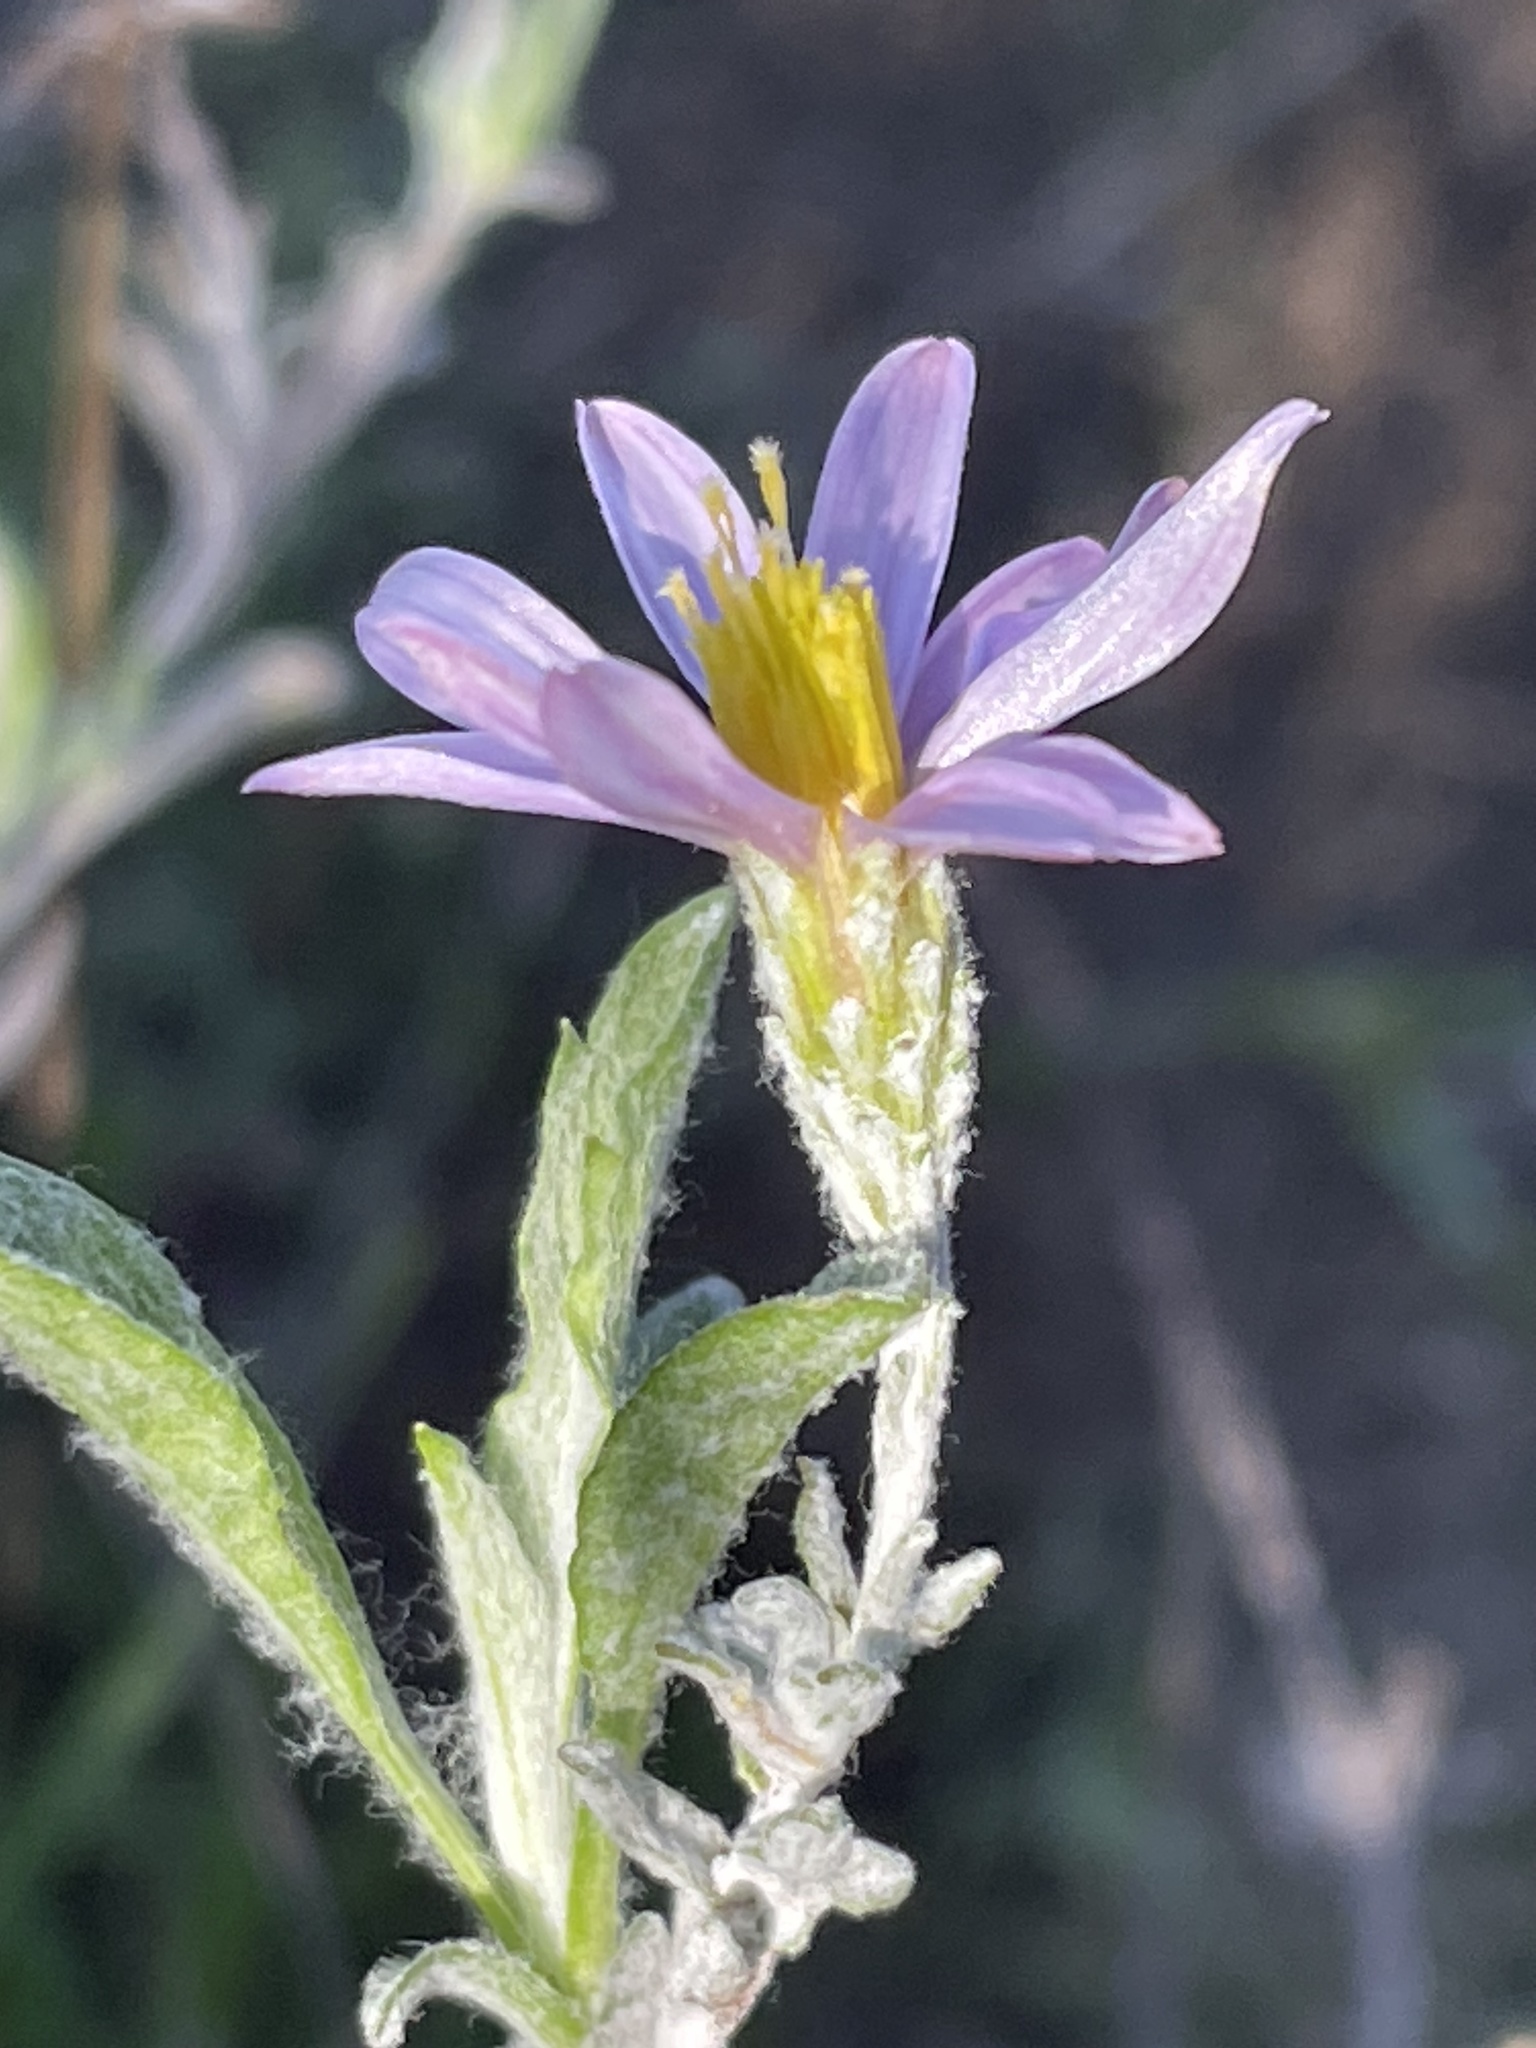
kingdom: Plantae
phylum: Tracheophyta
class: Magnoliopsida
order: Asterales
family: Asteraceae
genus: Corethrogyne
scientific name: Corethrogyne filaginifolia
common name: Sand-aster
